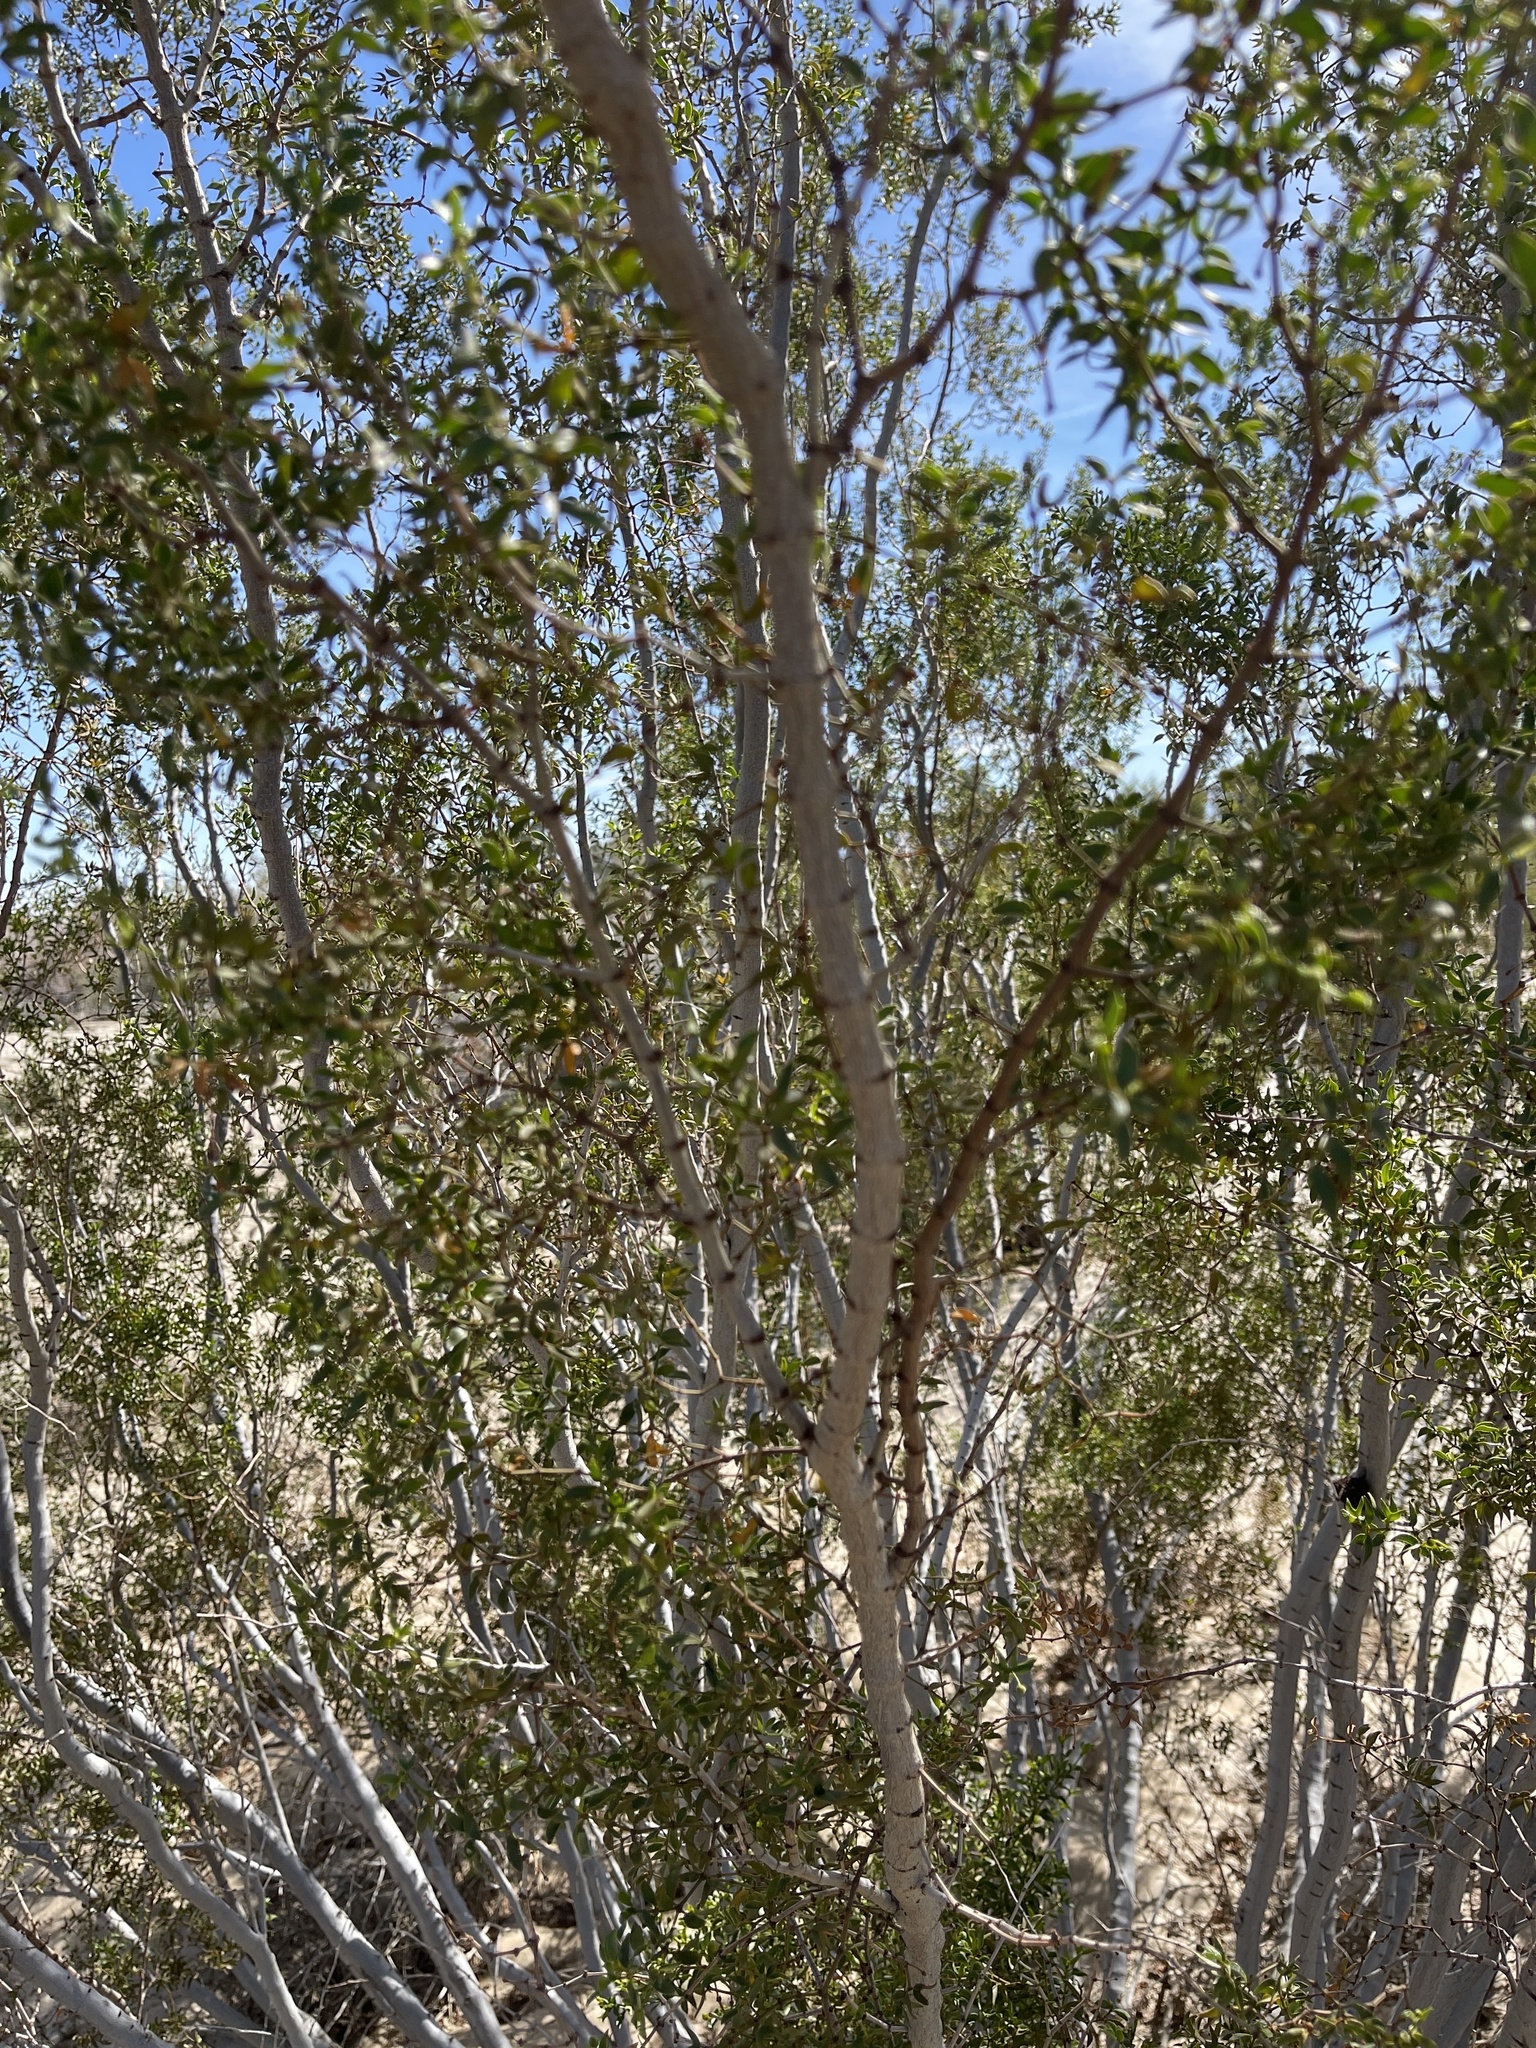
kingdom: Plantae
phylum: Tracheophyta
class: Magnoliopsida
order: Zygophyllales
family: Zygophyllaceae
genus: Larrea
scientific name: Larrea tridentata
